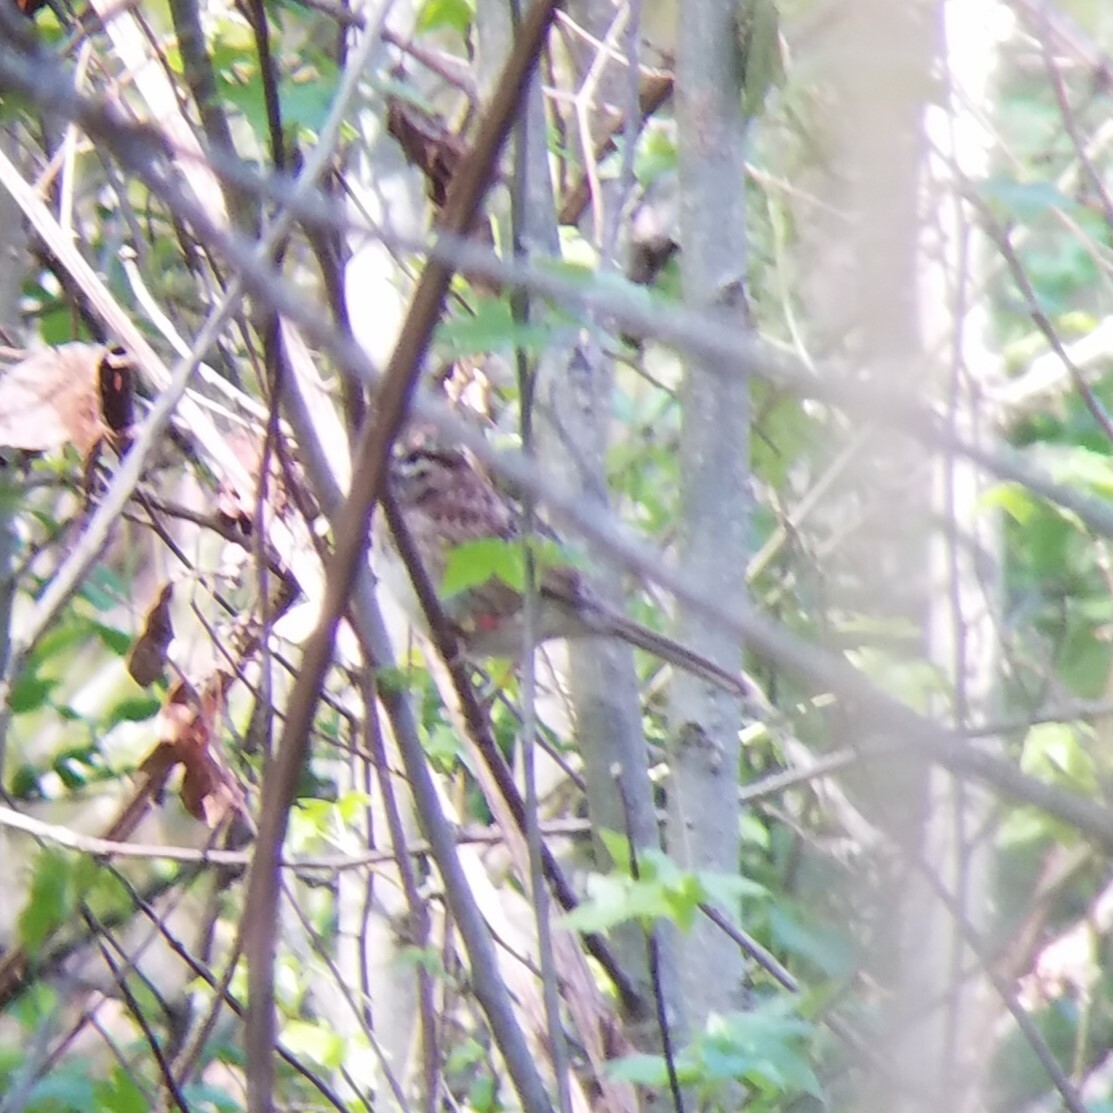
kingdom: Animalia
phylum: Chordata
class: Aves
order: Passeriformes
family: Passerellidae
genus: Zonotrichia
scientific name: Zonotrichia albicollis
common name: White-throated sparrow
